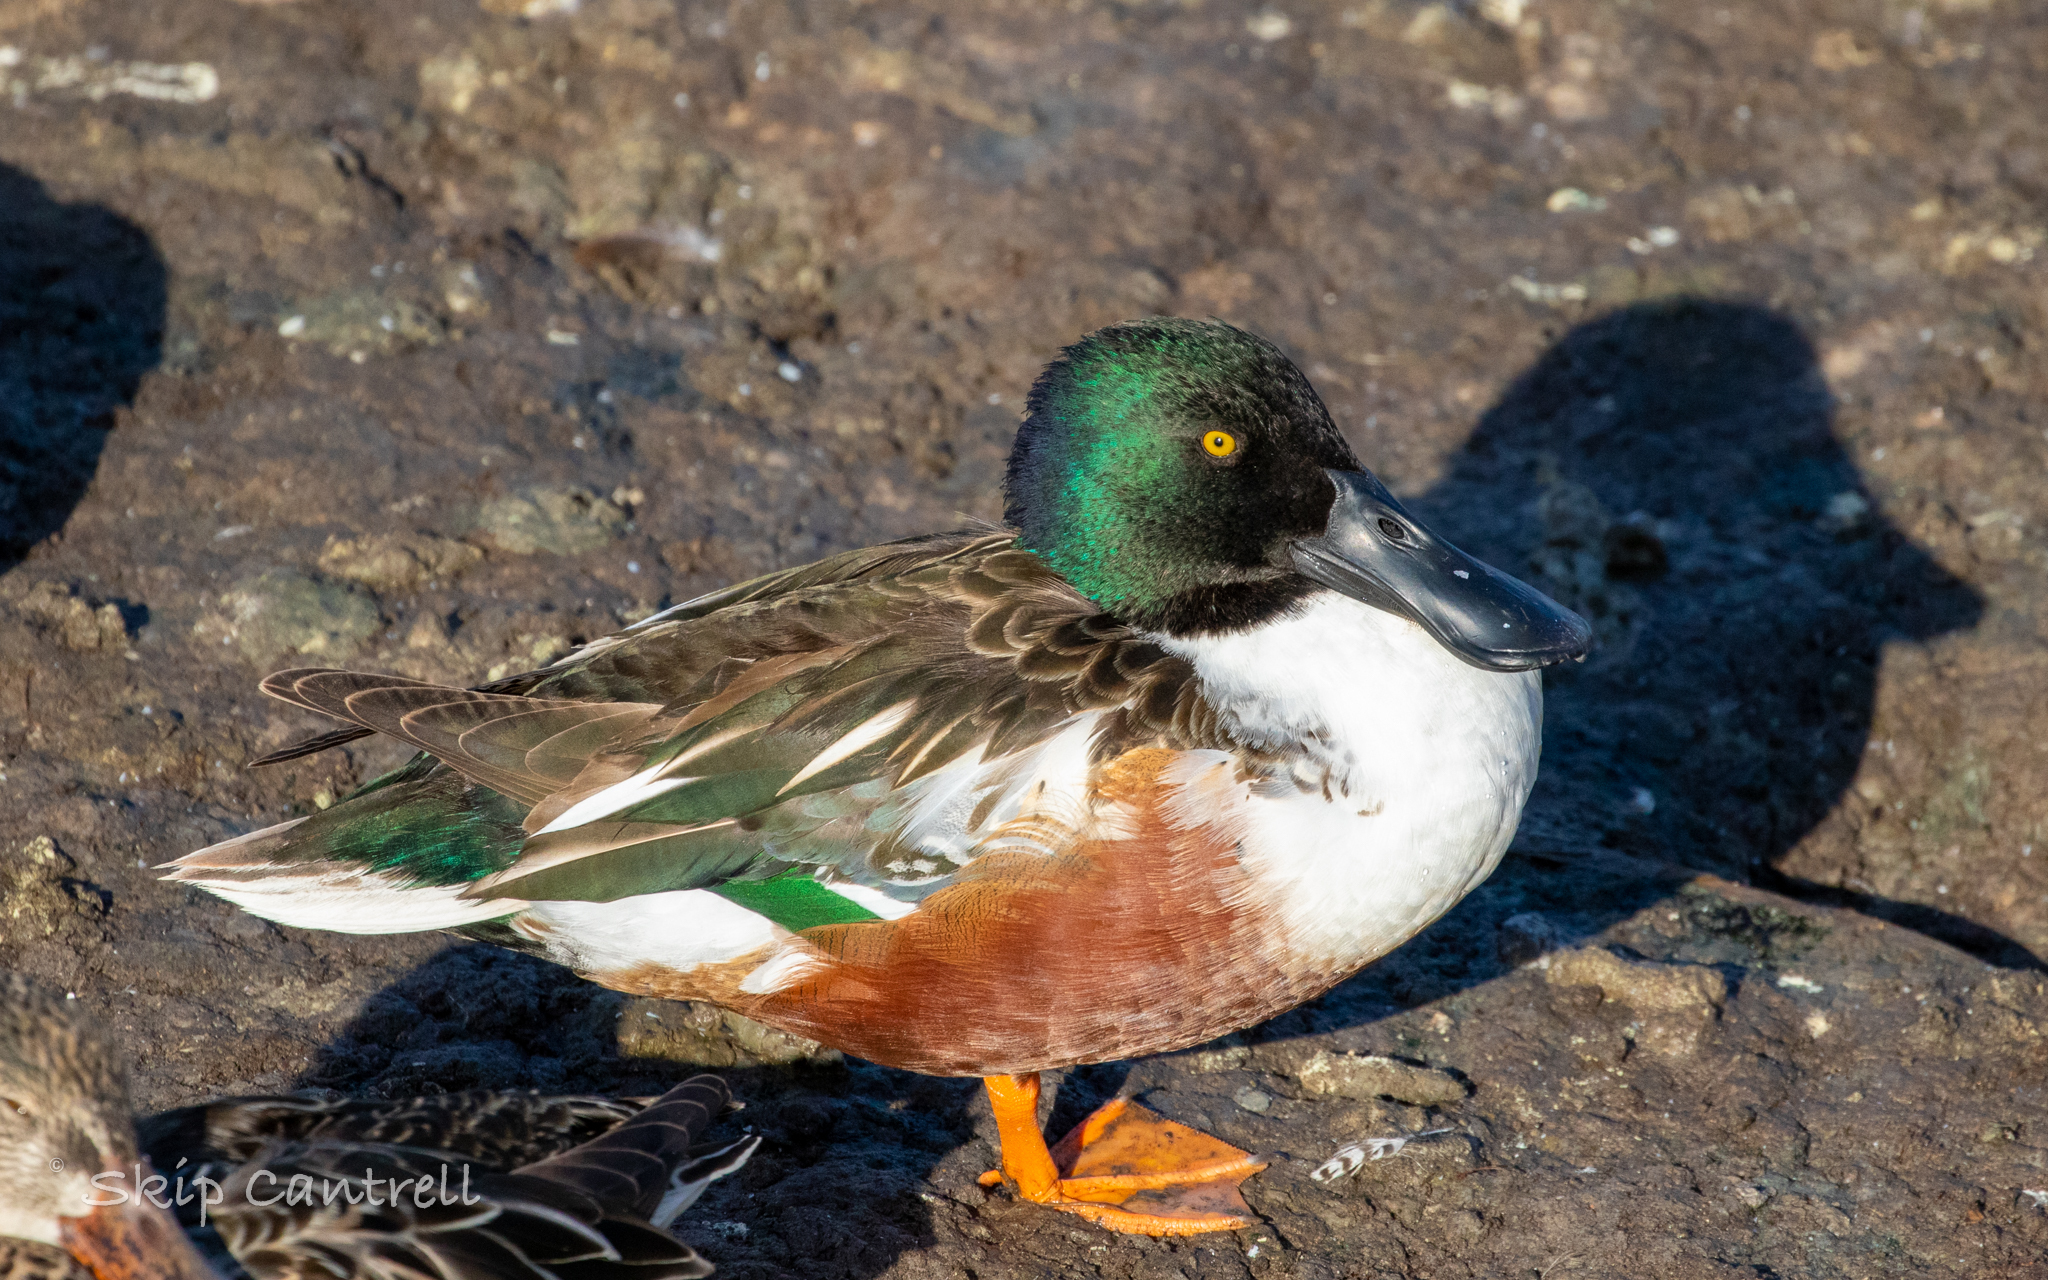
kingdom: Animalia
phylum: Chordata
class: Aves
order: Anseriformes
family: Anatidae
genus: Spatula
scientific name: Spatula clypeata
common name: Northern shoveler
